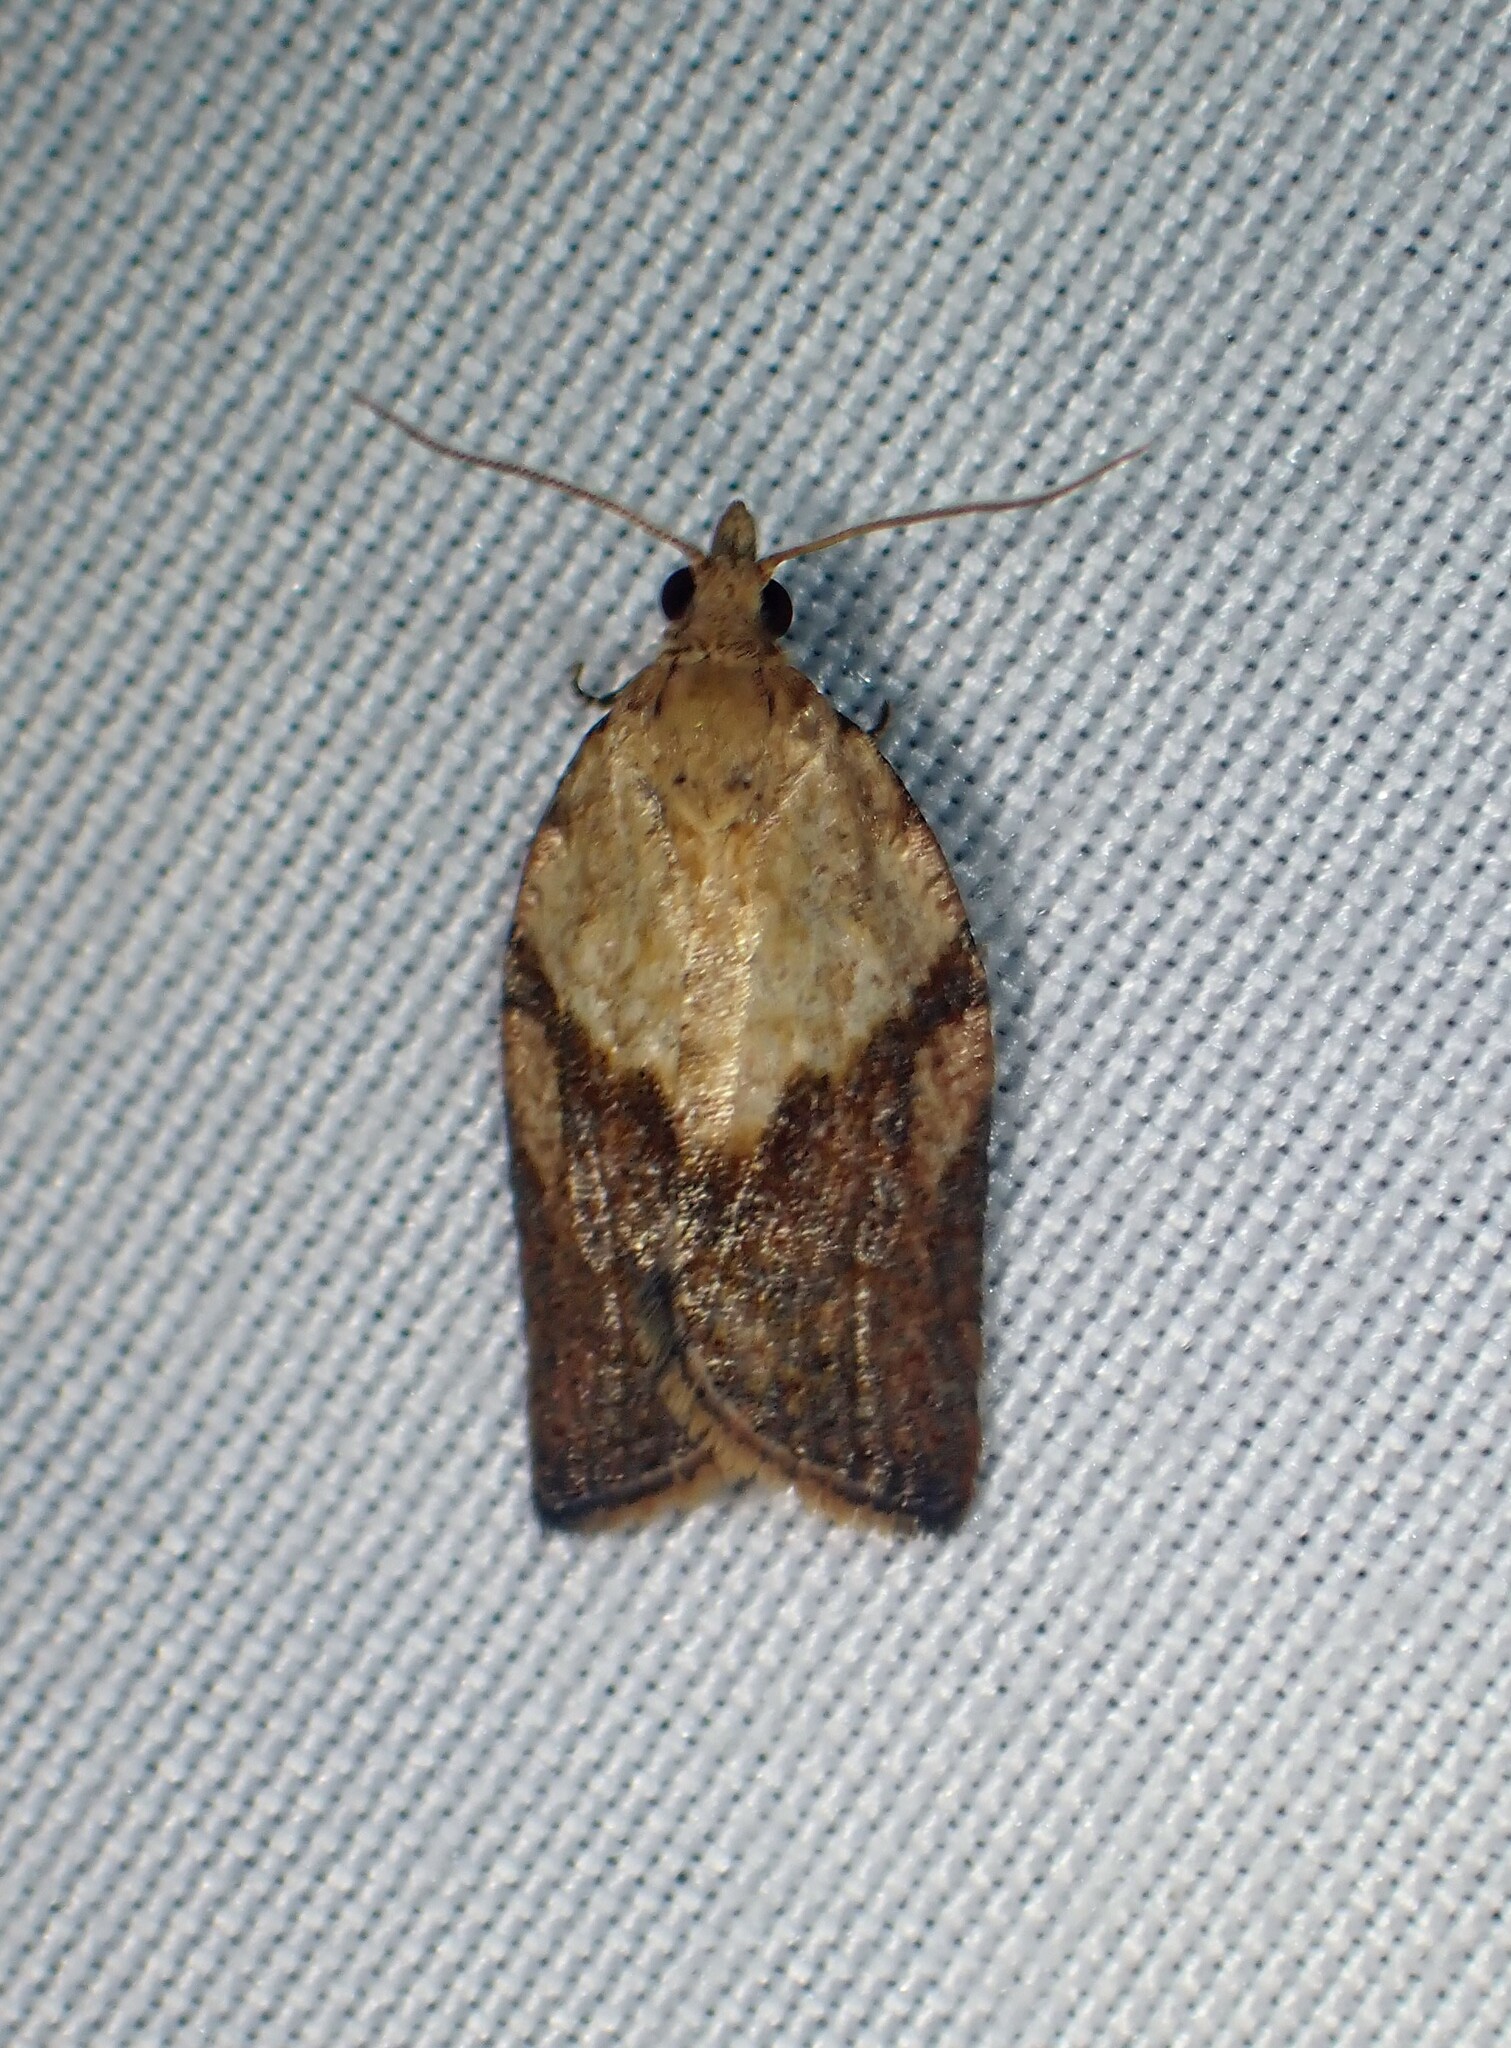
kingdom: Animalia
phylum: Arthropoda
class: Insecta
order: Lepidoptera
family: Tortricidae
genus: Epiphyas
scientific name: Epiphyas postvittana
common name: Light brown apple moth
